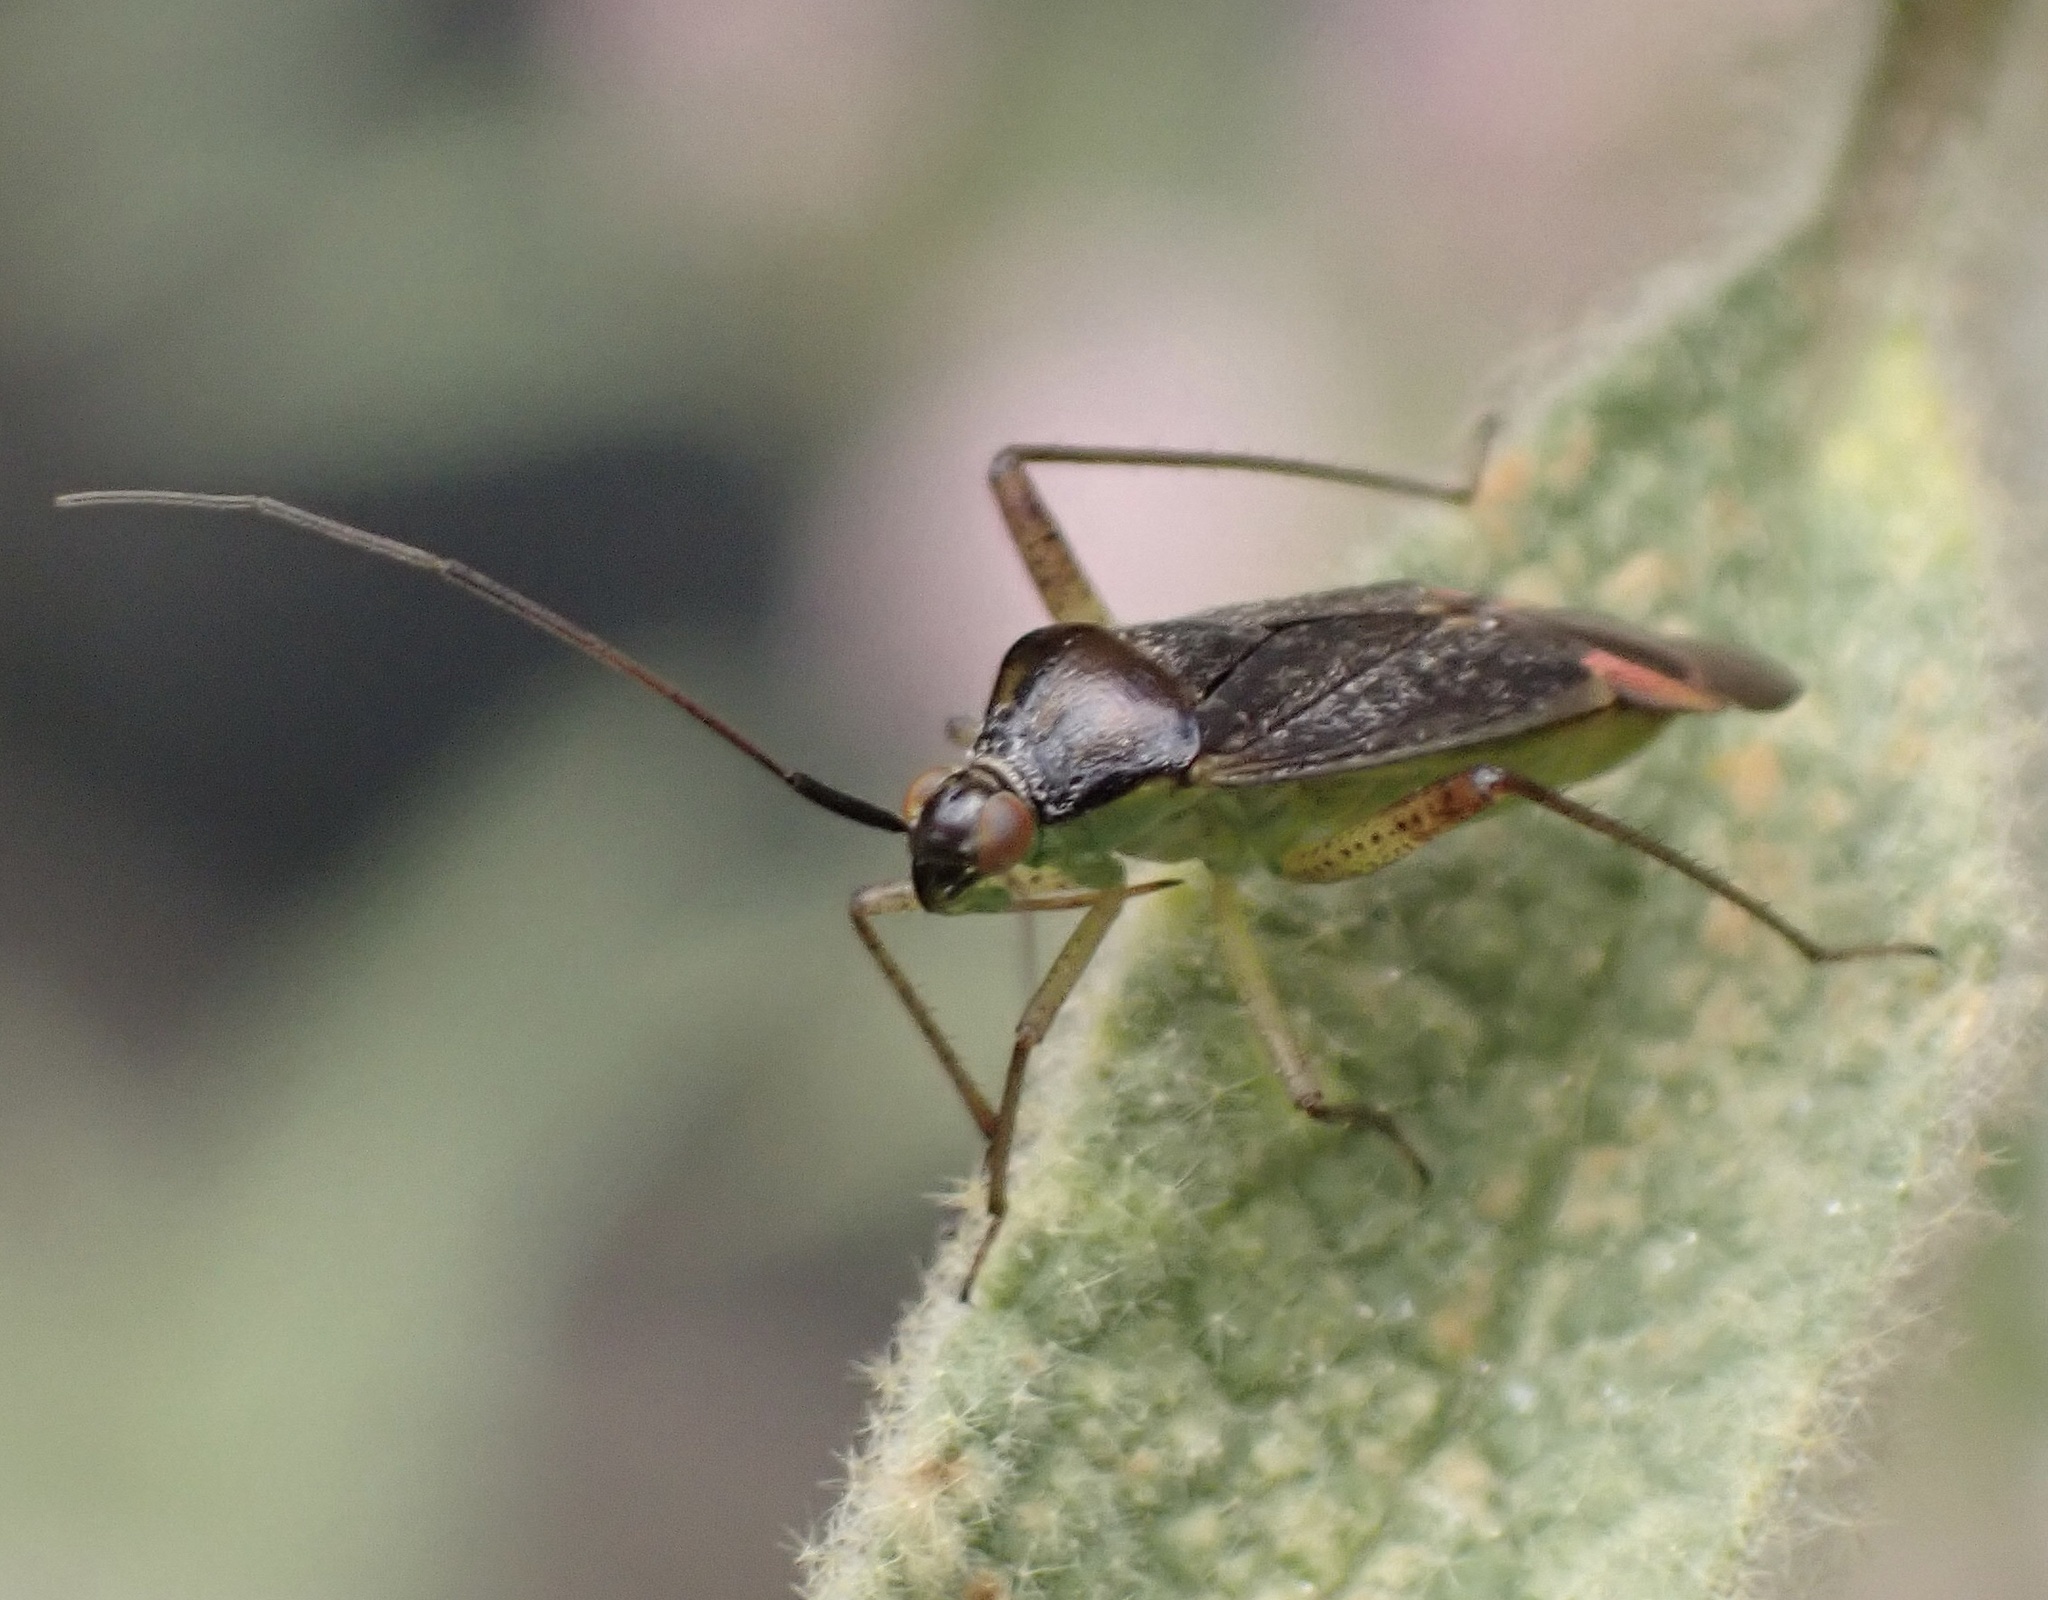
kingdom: Animalia
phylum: Arthropoda
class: Insecta
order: Hemiptera
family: Miridae
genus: Closterotomus
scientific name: Closterotomus trivialis
